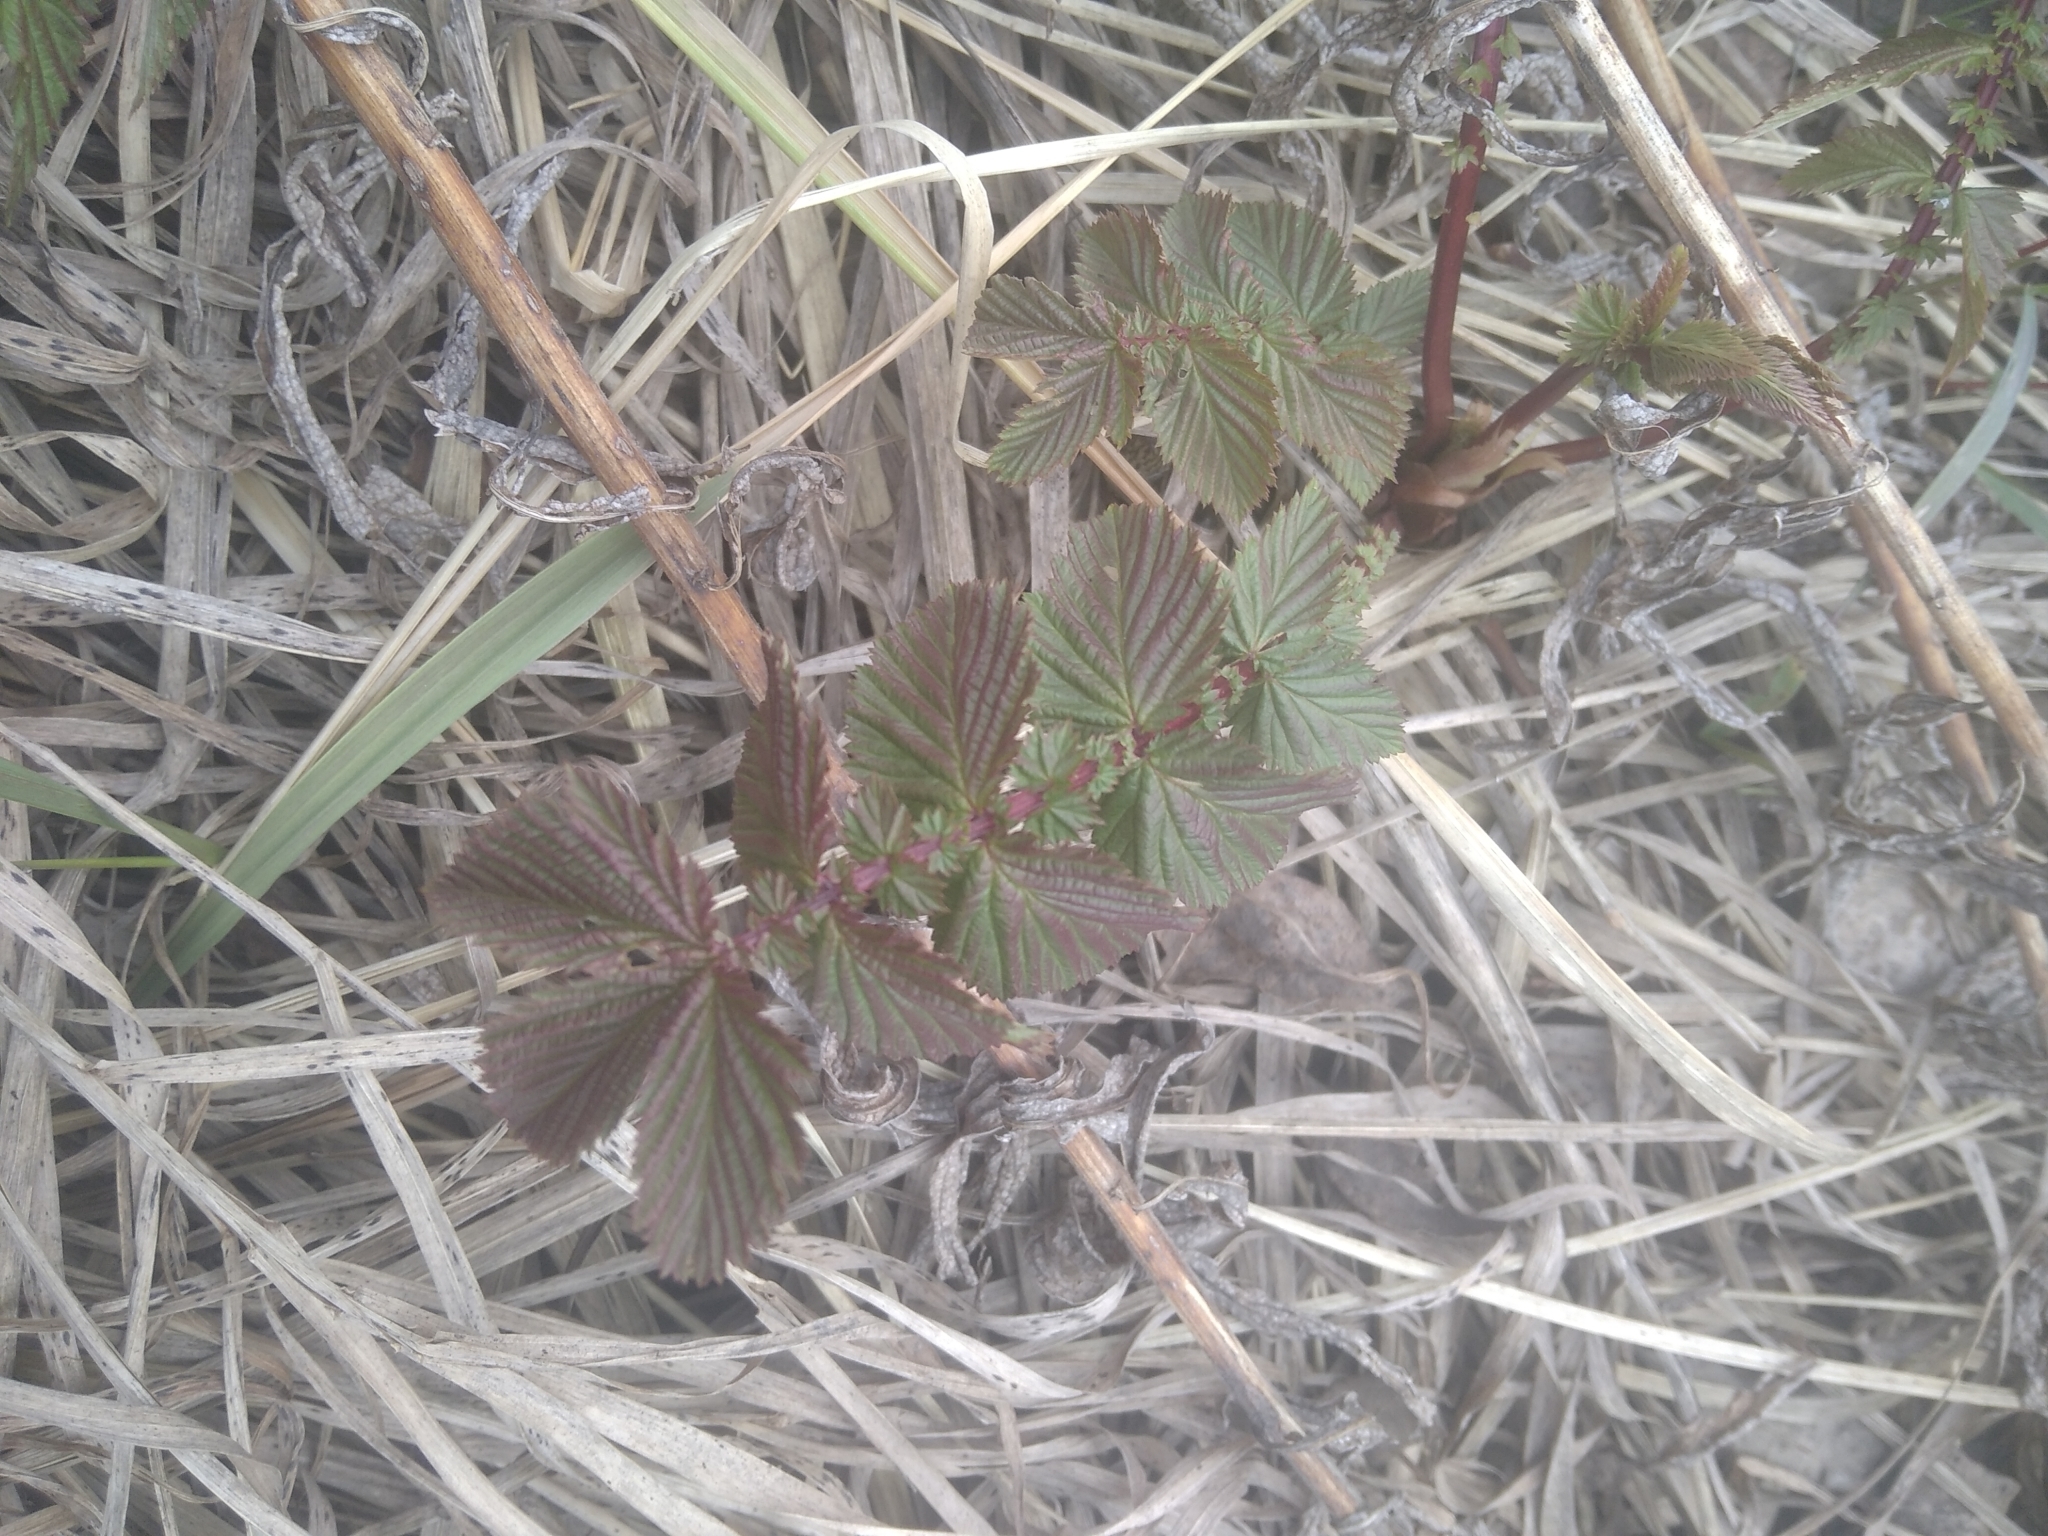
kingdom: Plantae
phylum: Tracheophyta
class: Magnoliopsida
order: Rosales
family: Rosaceae
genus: Filipendula
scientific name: Filipendula ulmaria
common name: Meadowsweet
